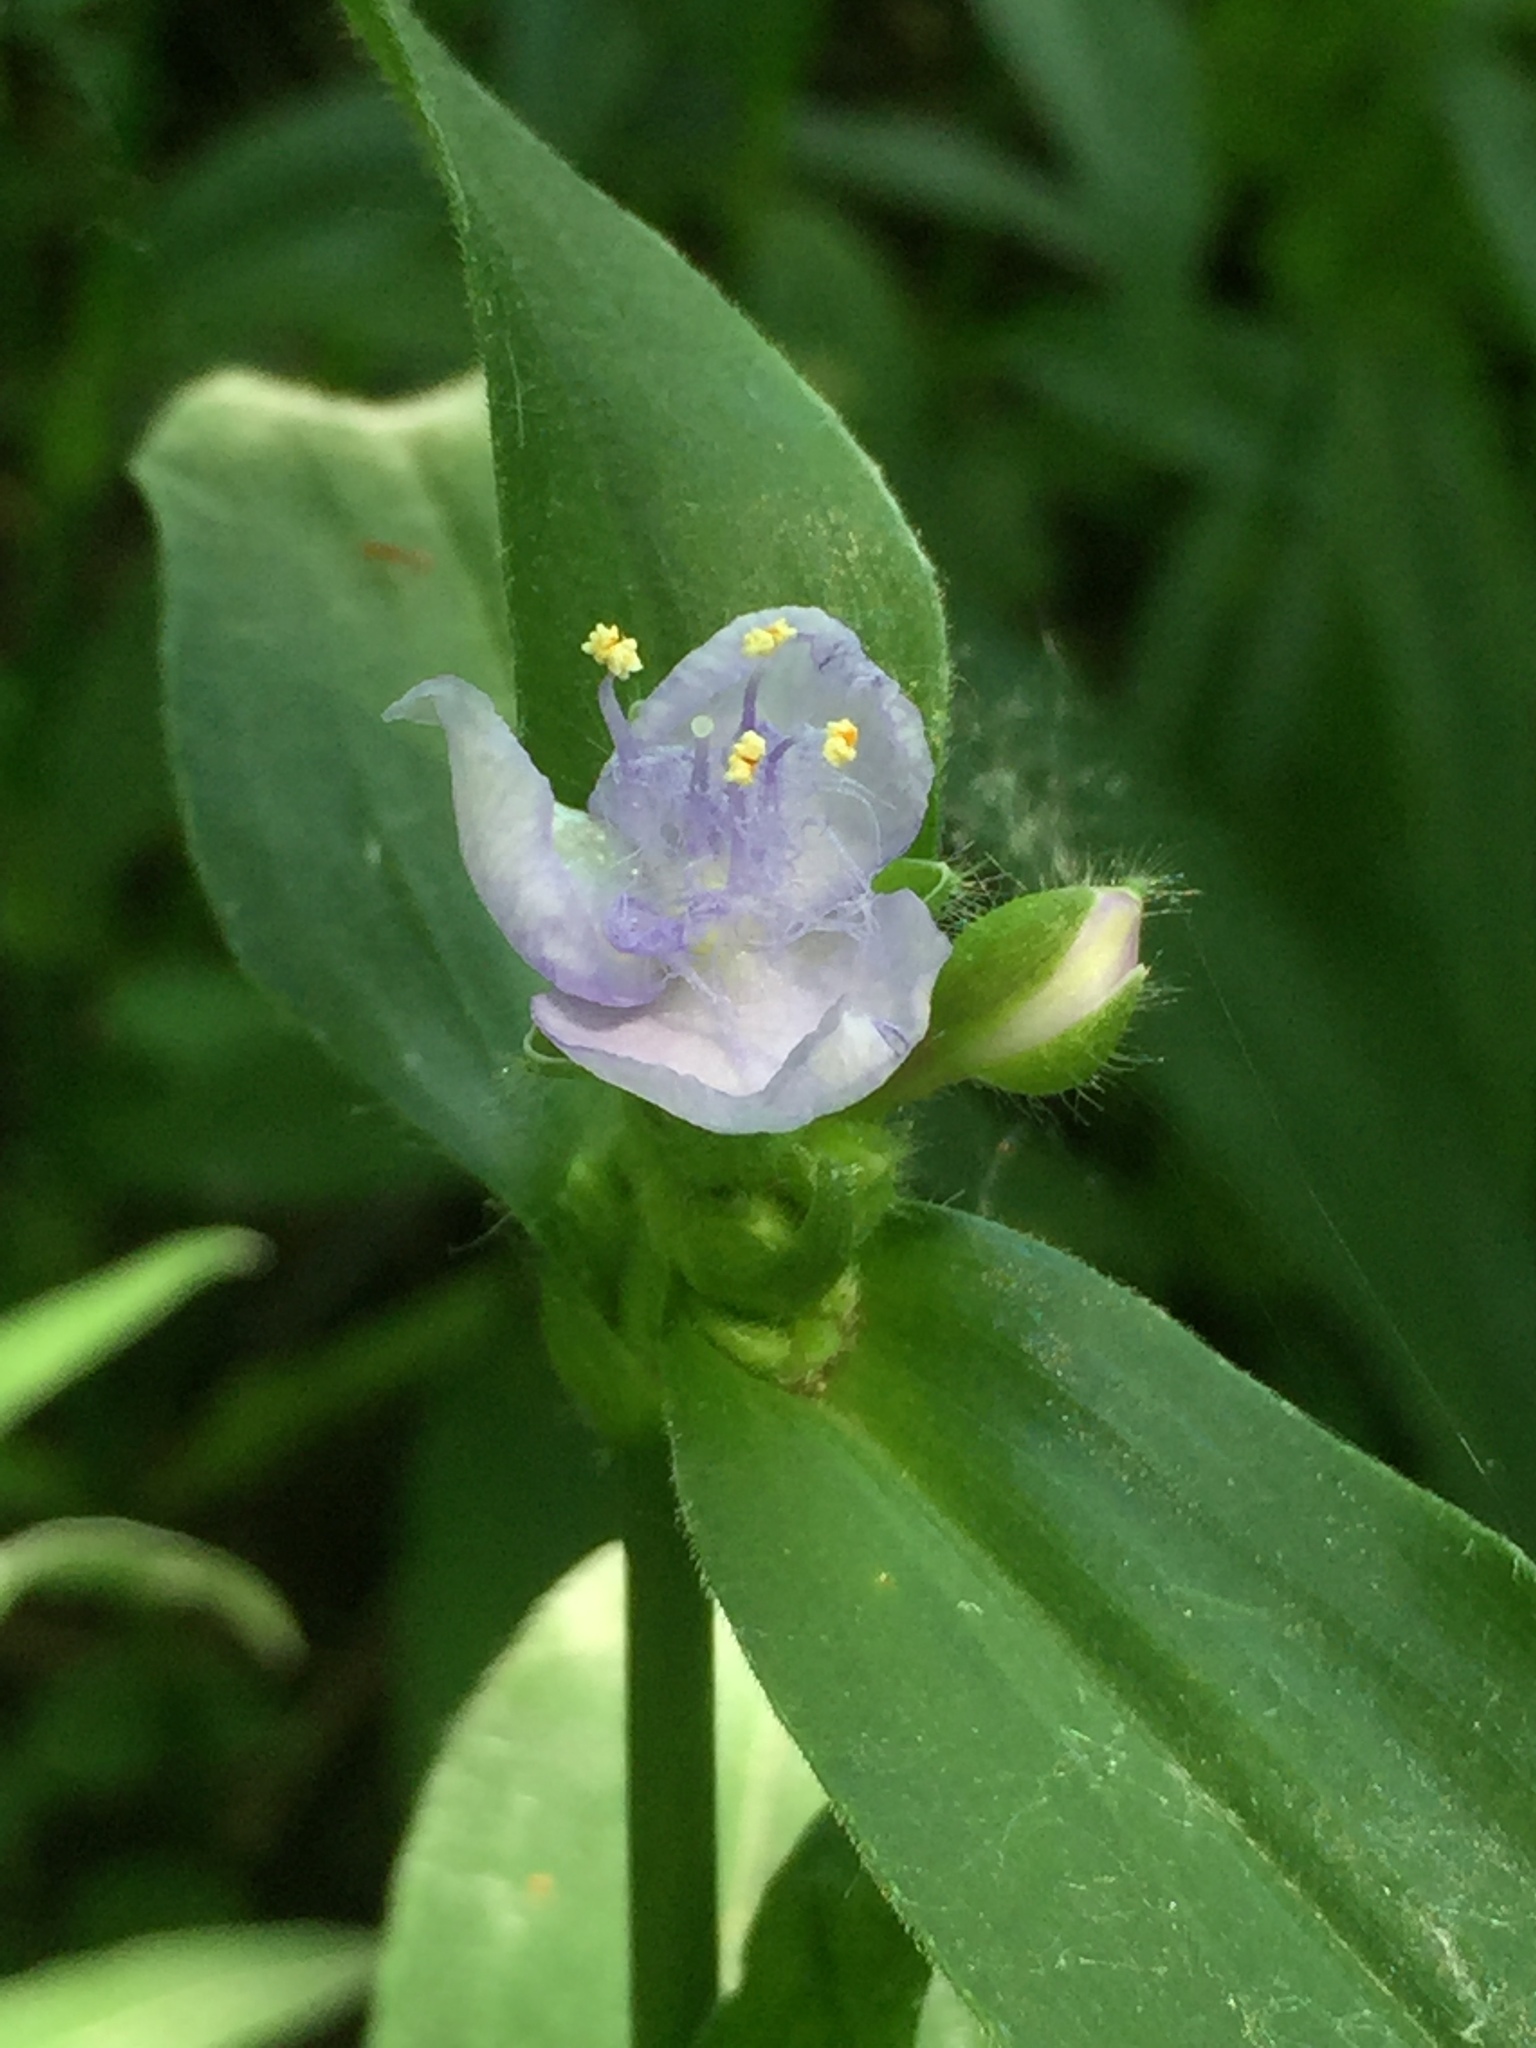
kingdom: Plantae
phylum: Tracheophyta
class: Liliopsida
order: Commelinales
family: Commelinaceae
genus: Tradescantia
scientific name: Tradescantia subaspera
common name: Wide-leaf spiderwort
